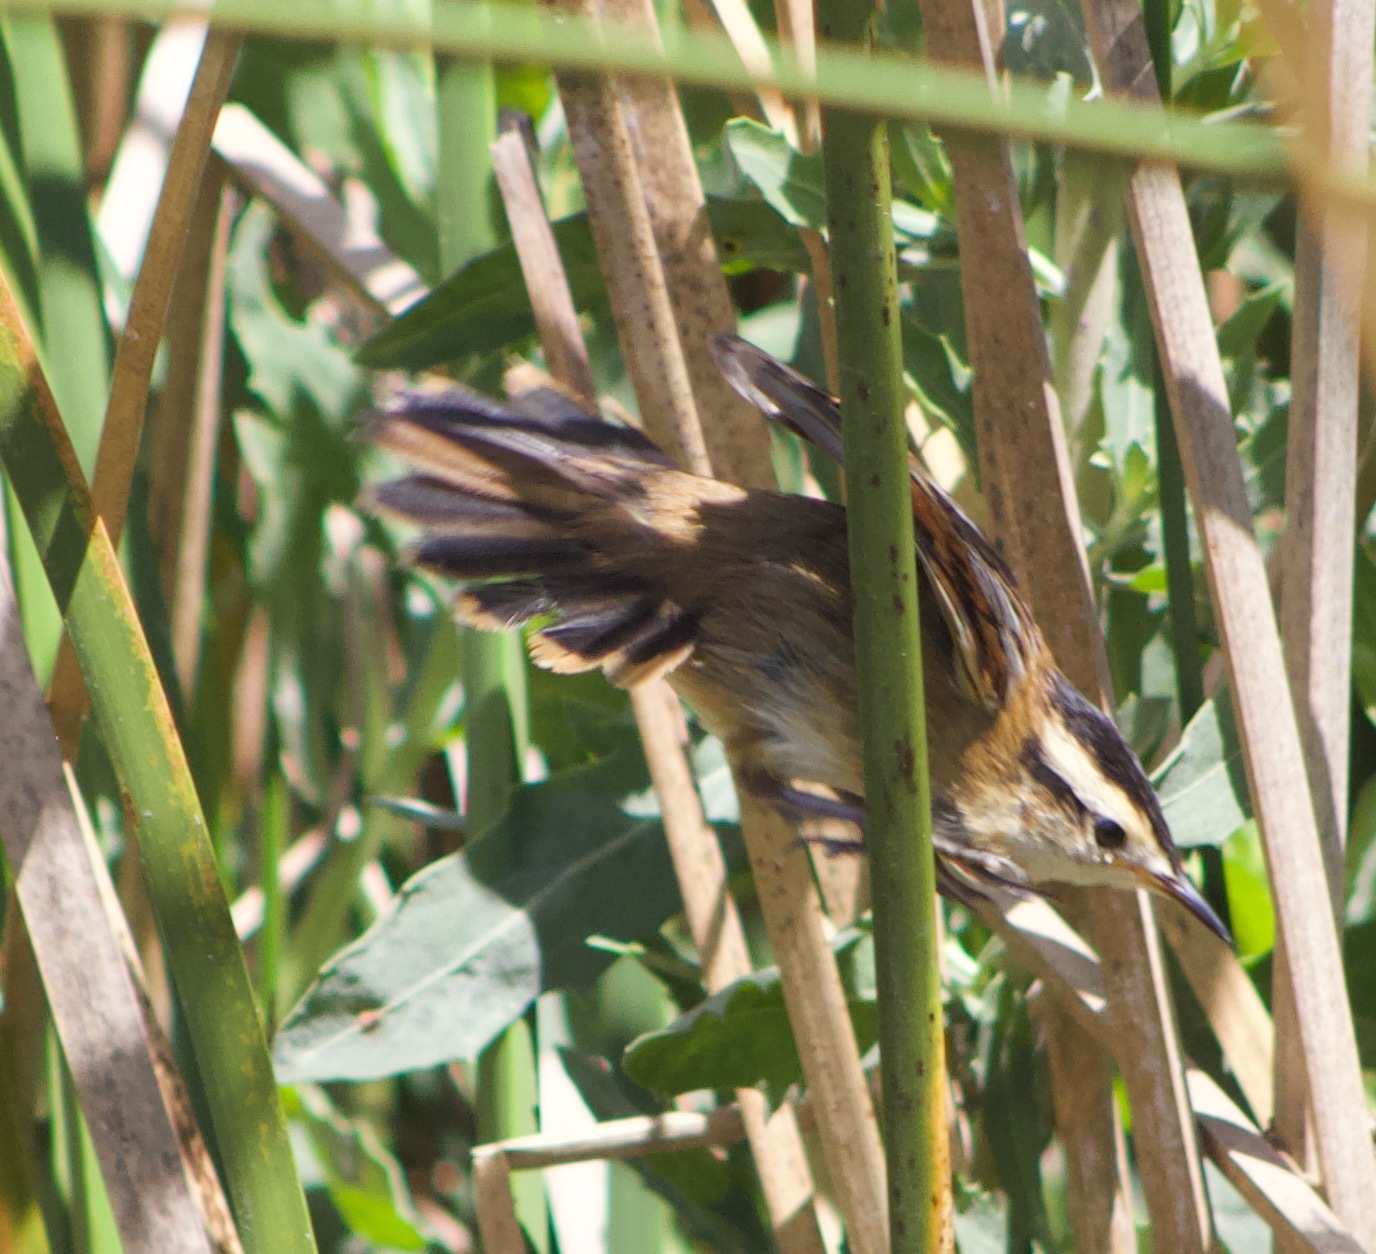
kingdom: Animalia
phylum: Chordata
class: Aves
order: Passeriformes
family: Furnariidae
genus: Phleocryptes
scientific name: Phleocryptes melanops
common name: Wren-like rushbird
